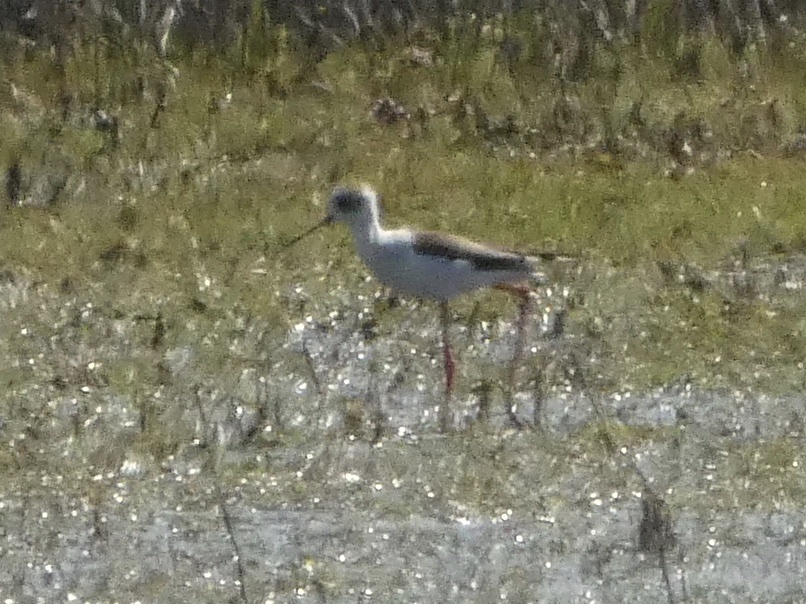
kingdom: Animalia
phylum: Chordata
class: Aves
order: Charadriiformes
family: Recurvirostridae
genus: Himantopus
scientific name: Himantopus himantopus
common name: Black-winged stilt
